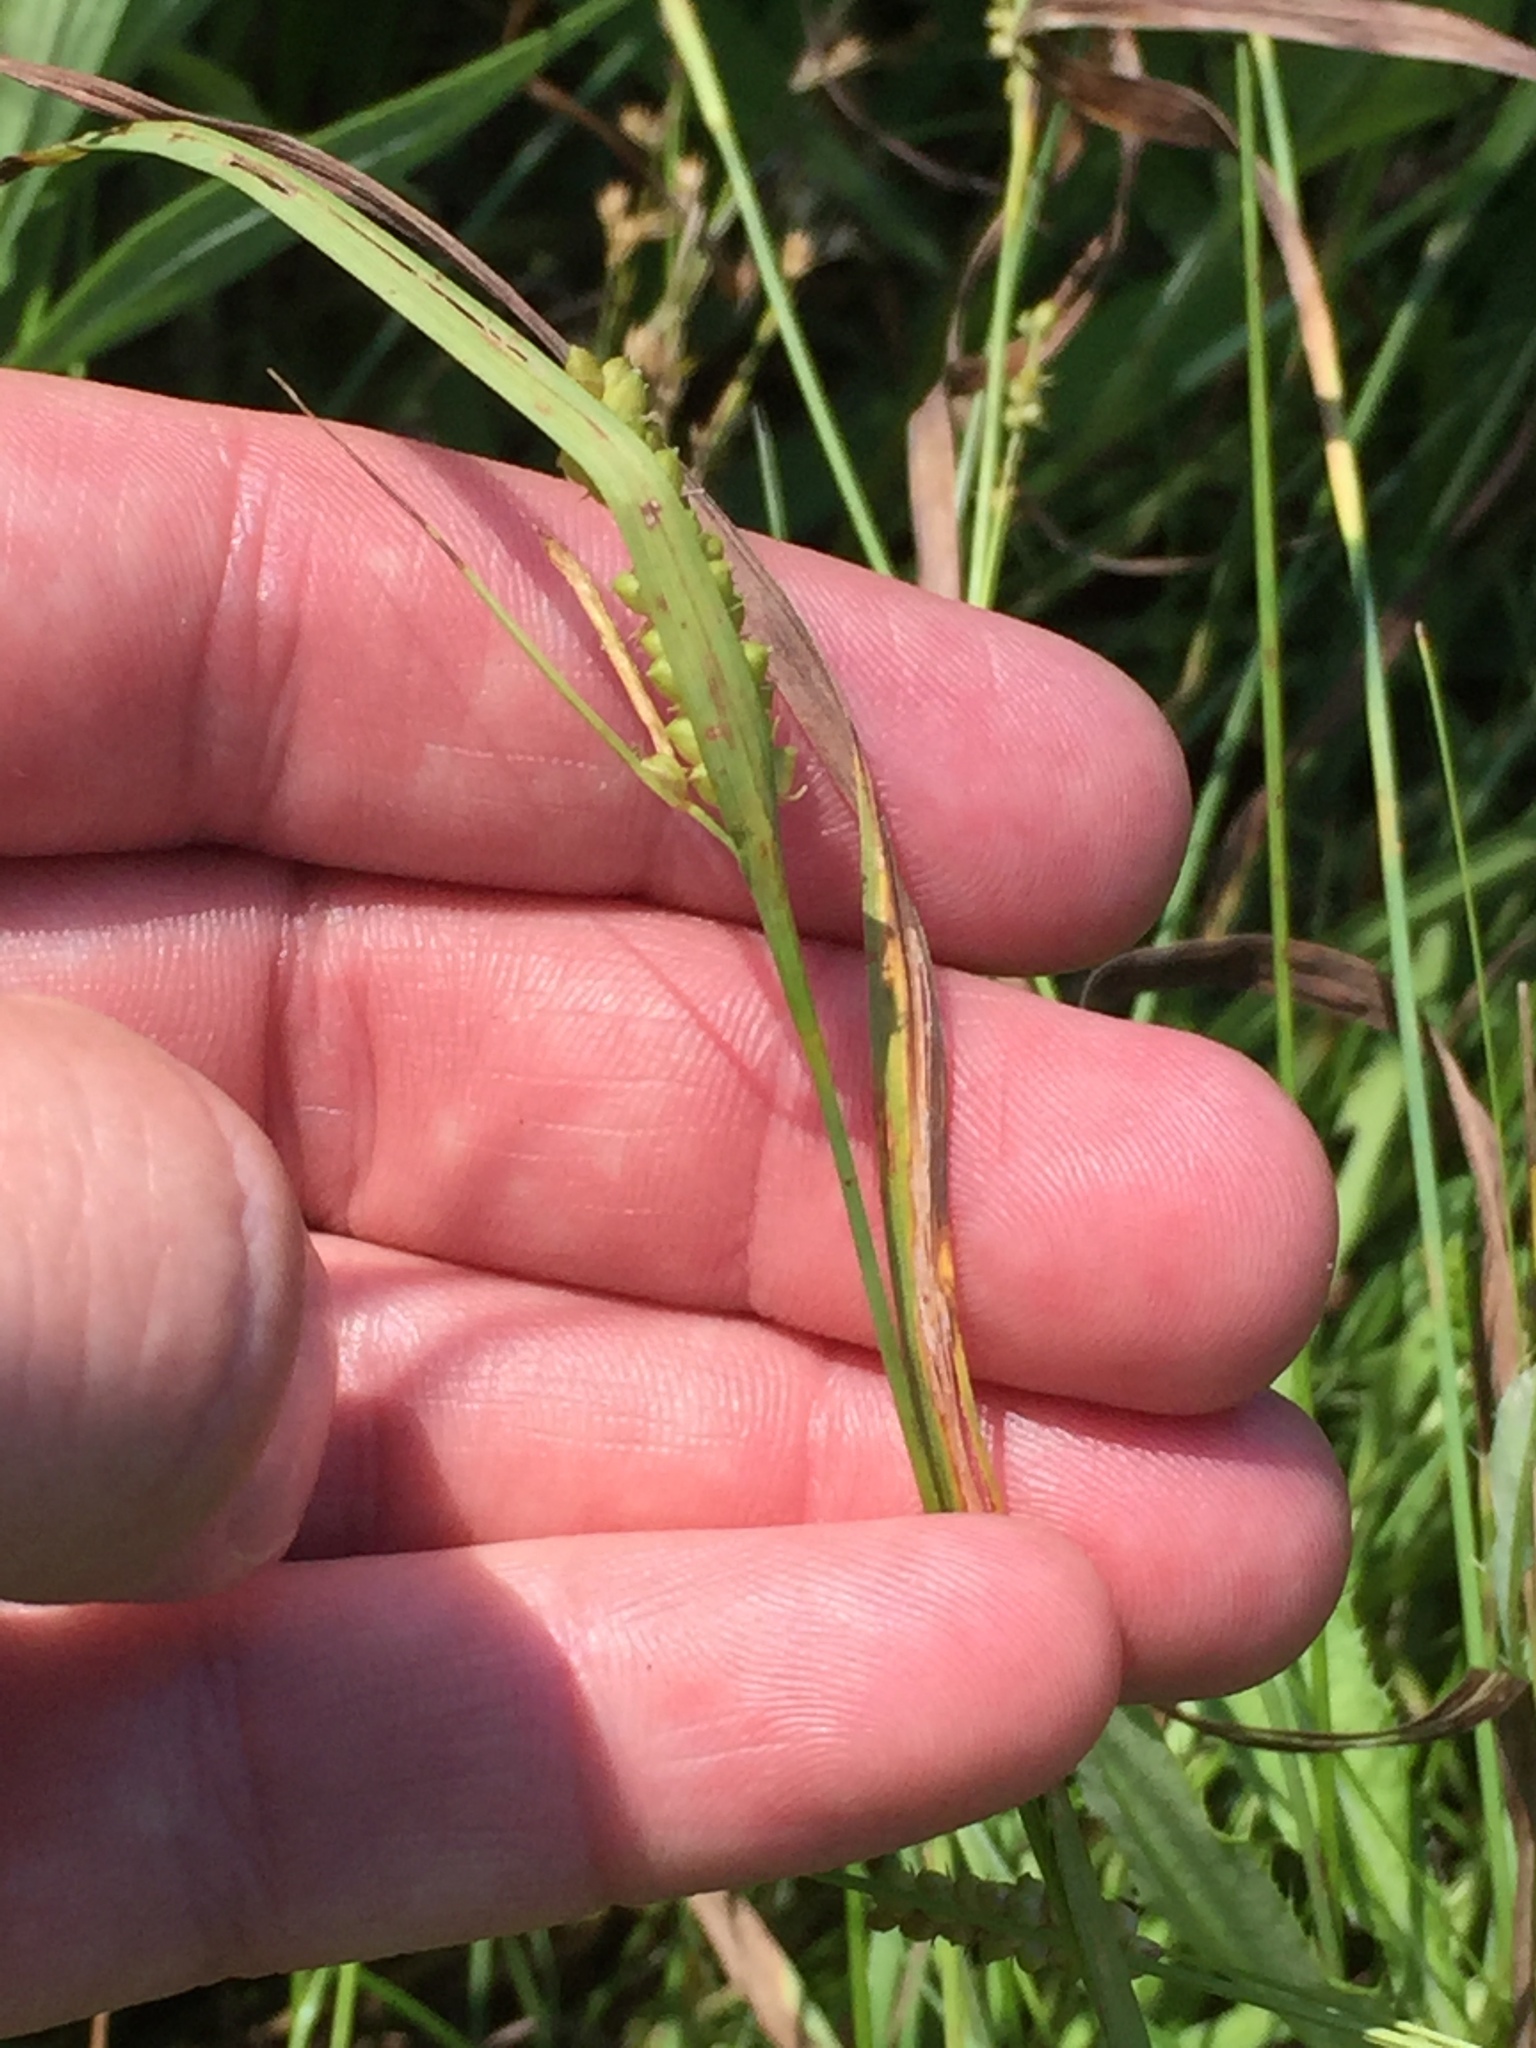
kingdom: Plantae
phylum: Tracheophyta
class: Liliopsida
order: Poales
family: Cyperaceae
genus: Carex
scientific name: Carex granularis
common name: Granular sedge
